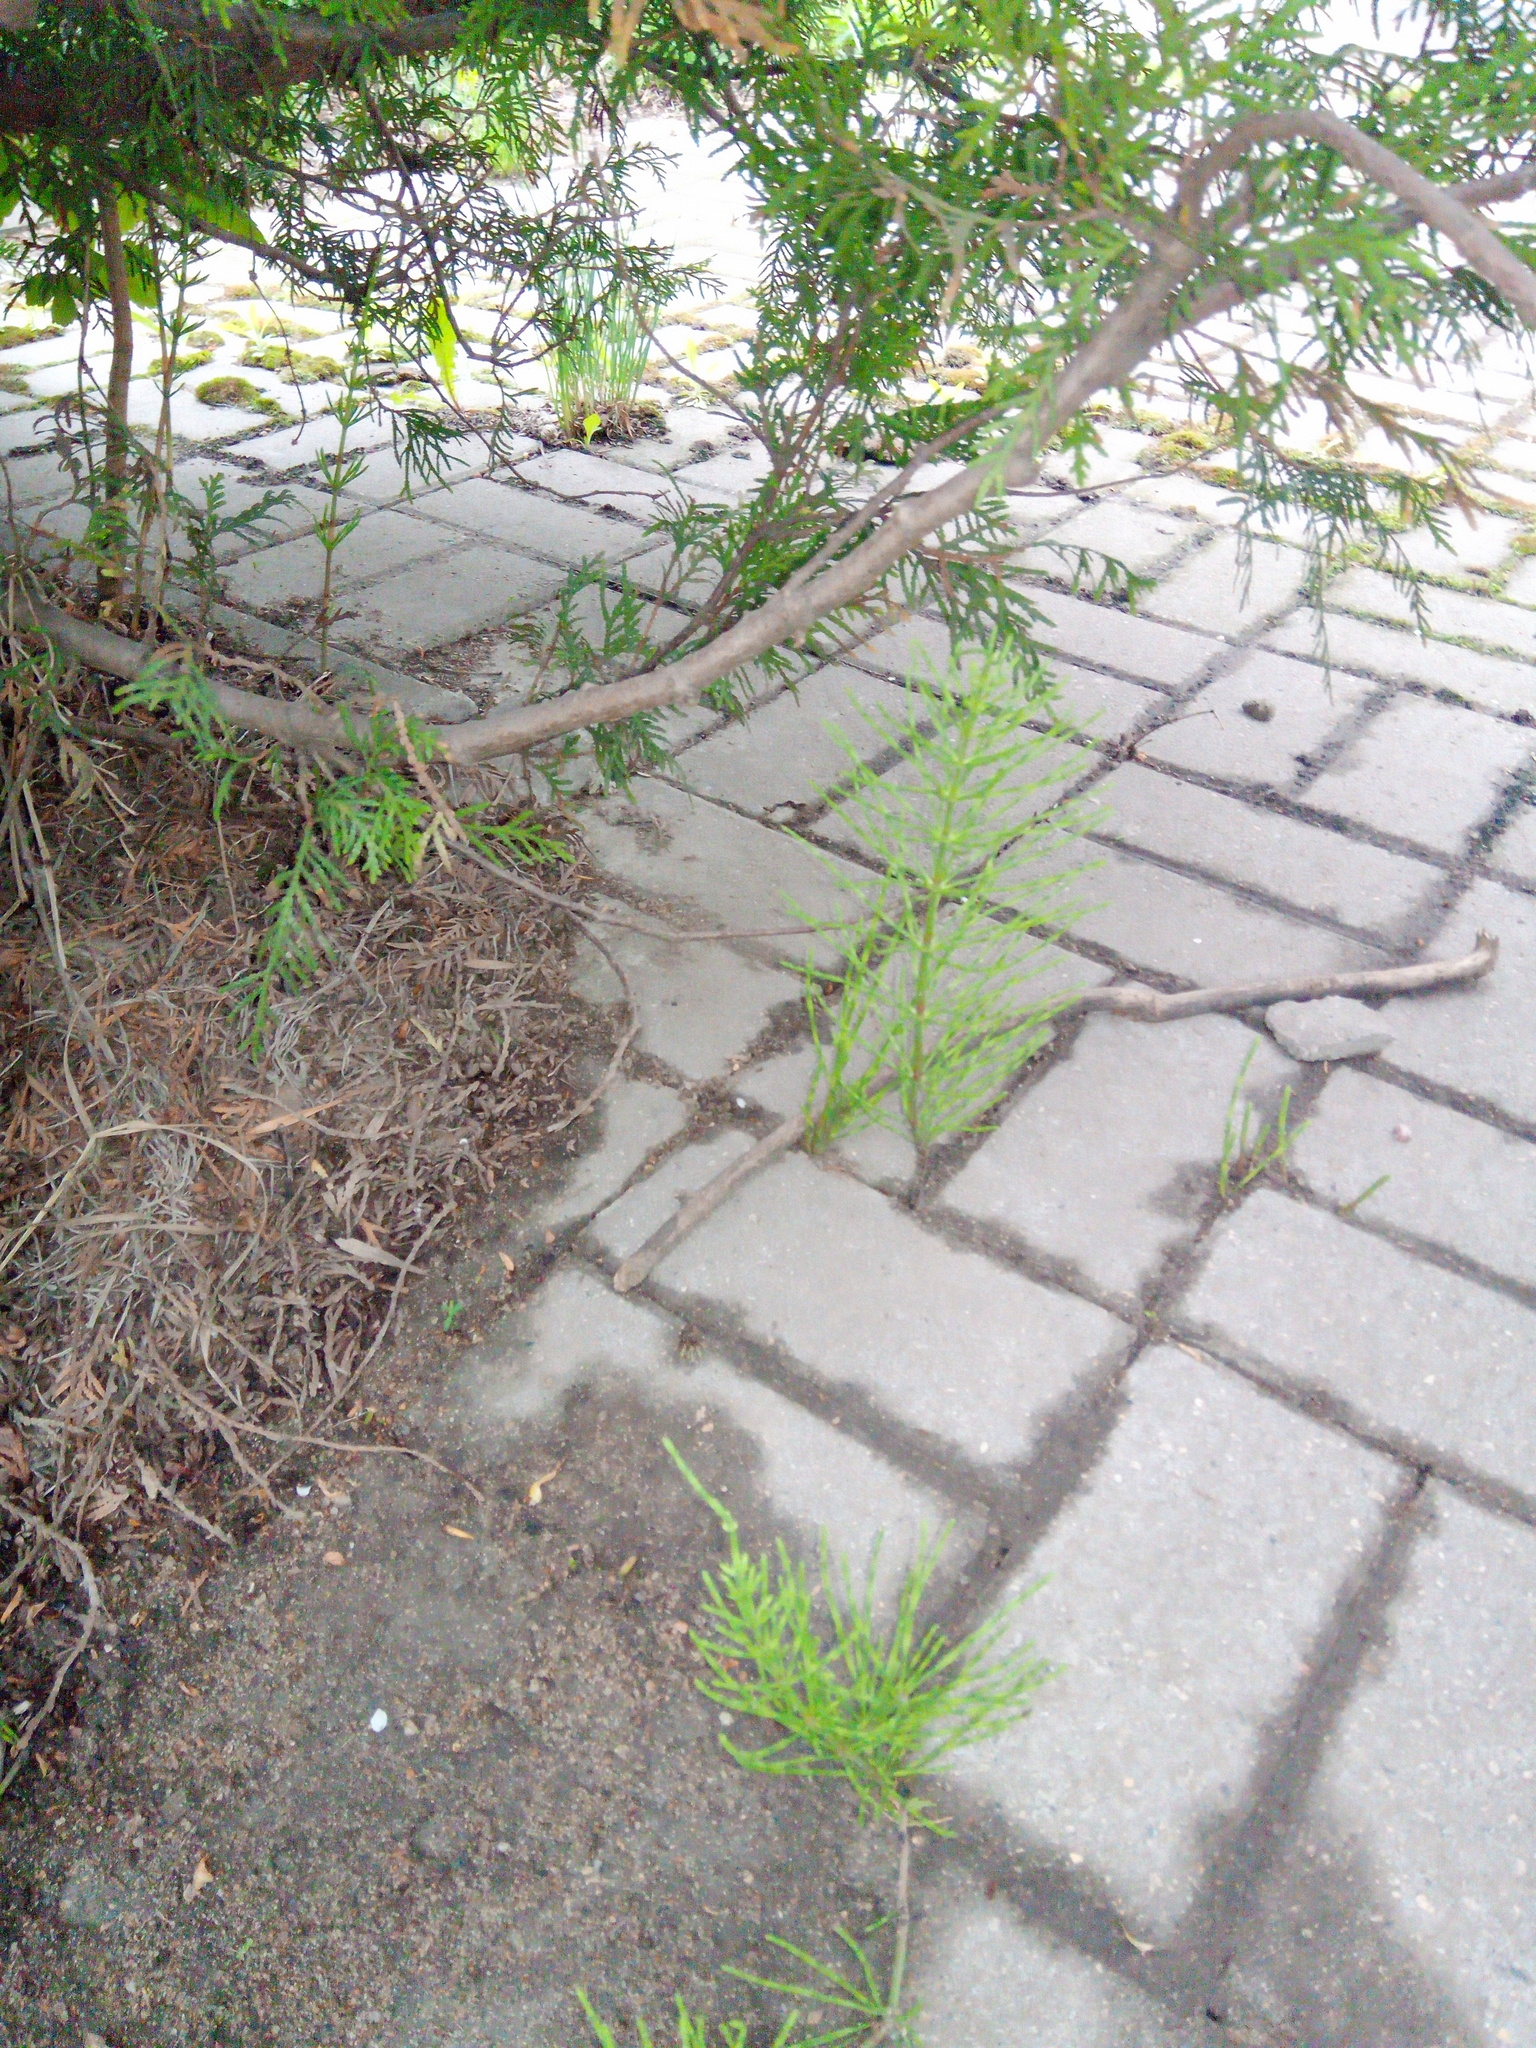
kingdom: Plantae
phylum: Tracheophyta
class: Polypodiopsida
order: Equisetales
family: Equisetaceae
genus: Equisetum
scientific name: Equisetum arvense
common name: Field horsetail
